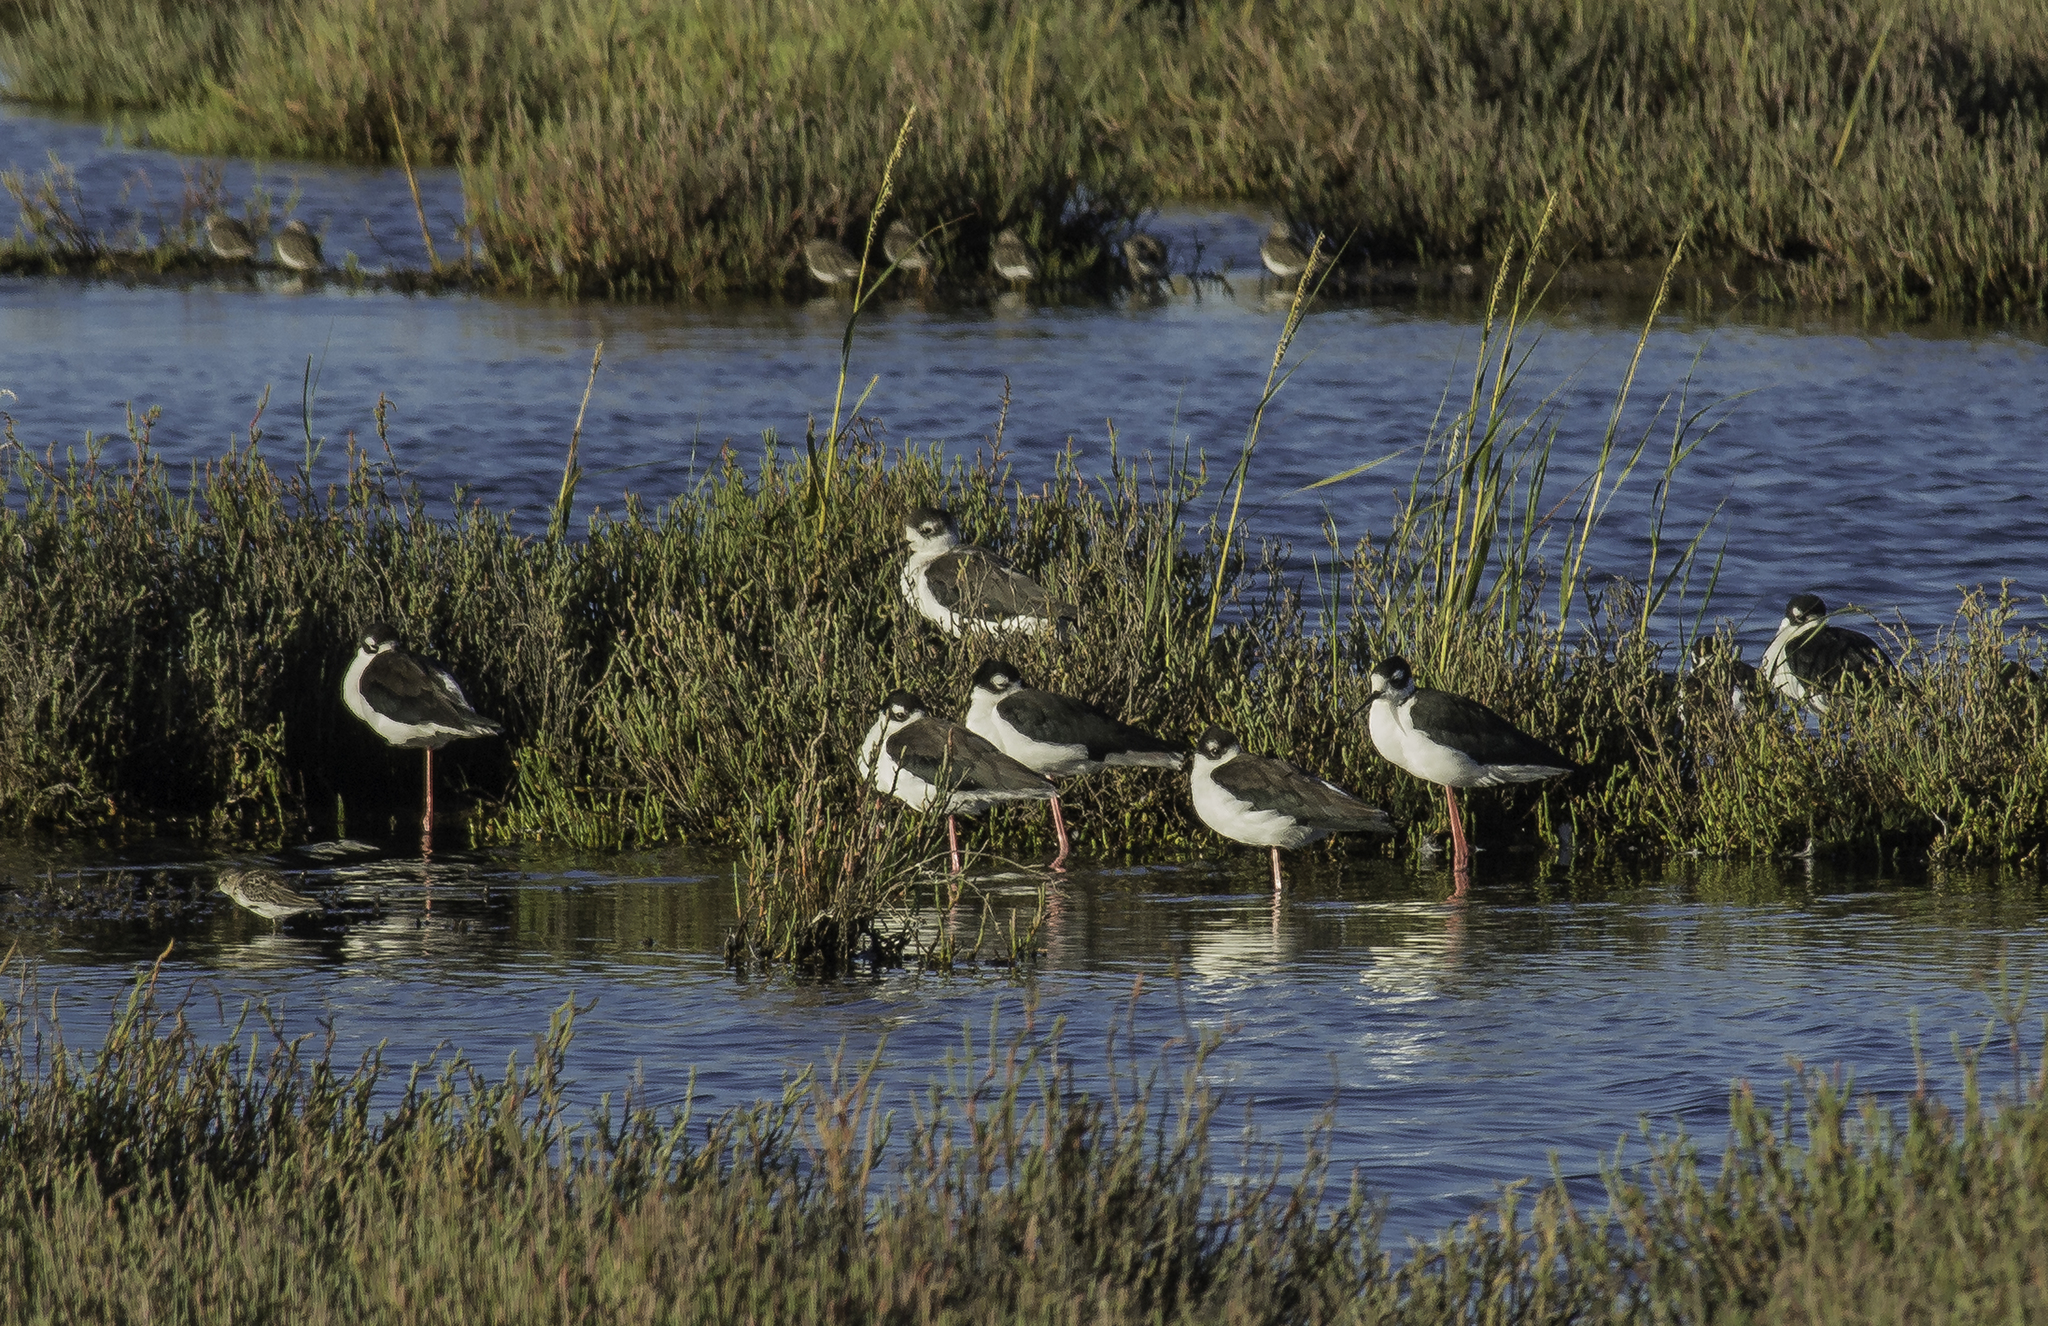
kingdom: Animalia
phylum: Chordata
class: Aves
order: Charadriiformes
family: Recurvirostridae
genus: Himantopus
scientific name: Himantopus mexicanus
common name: Black-necked stilt
